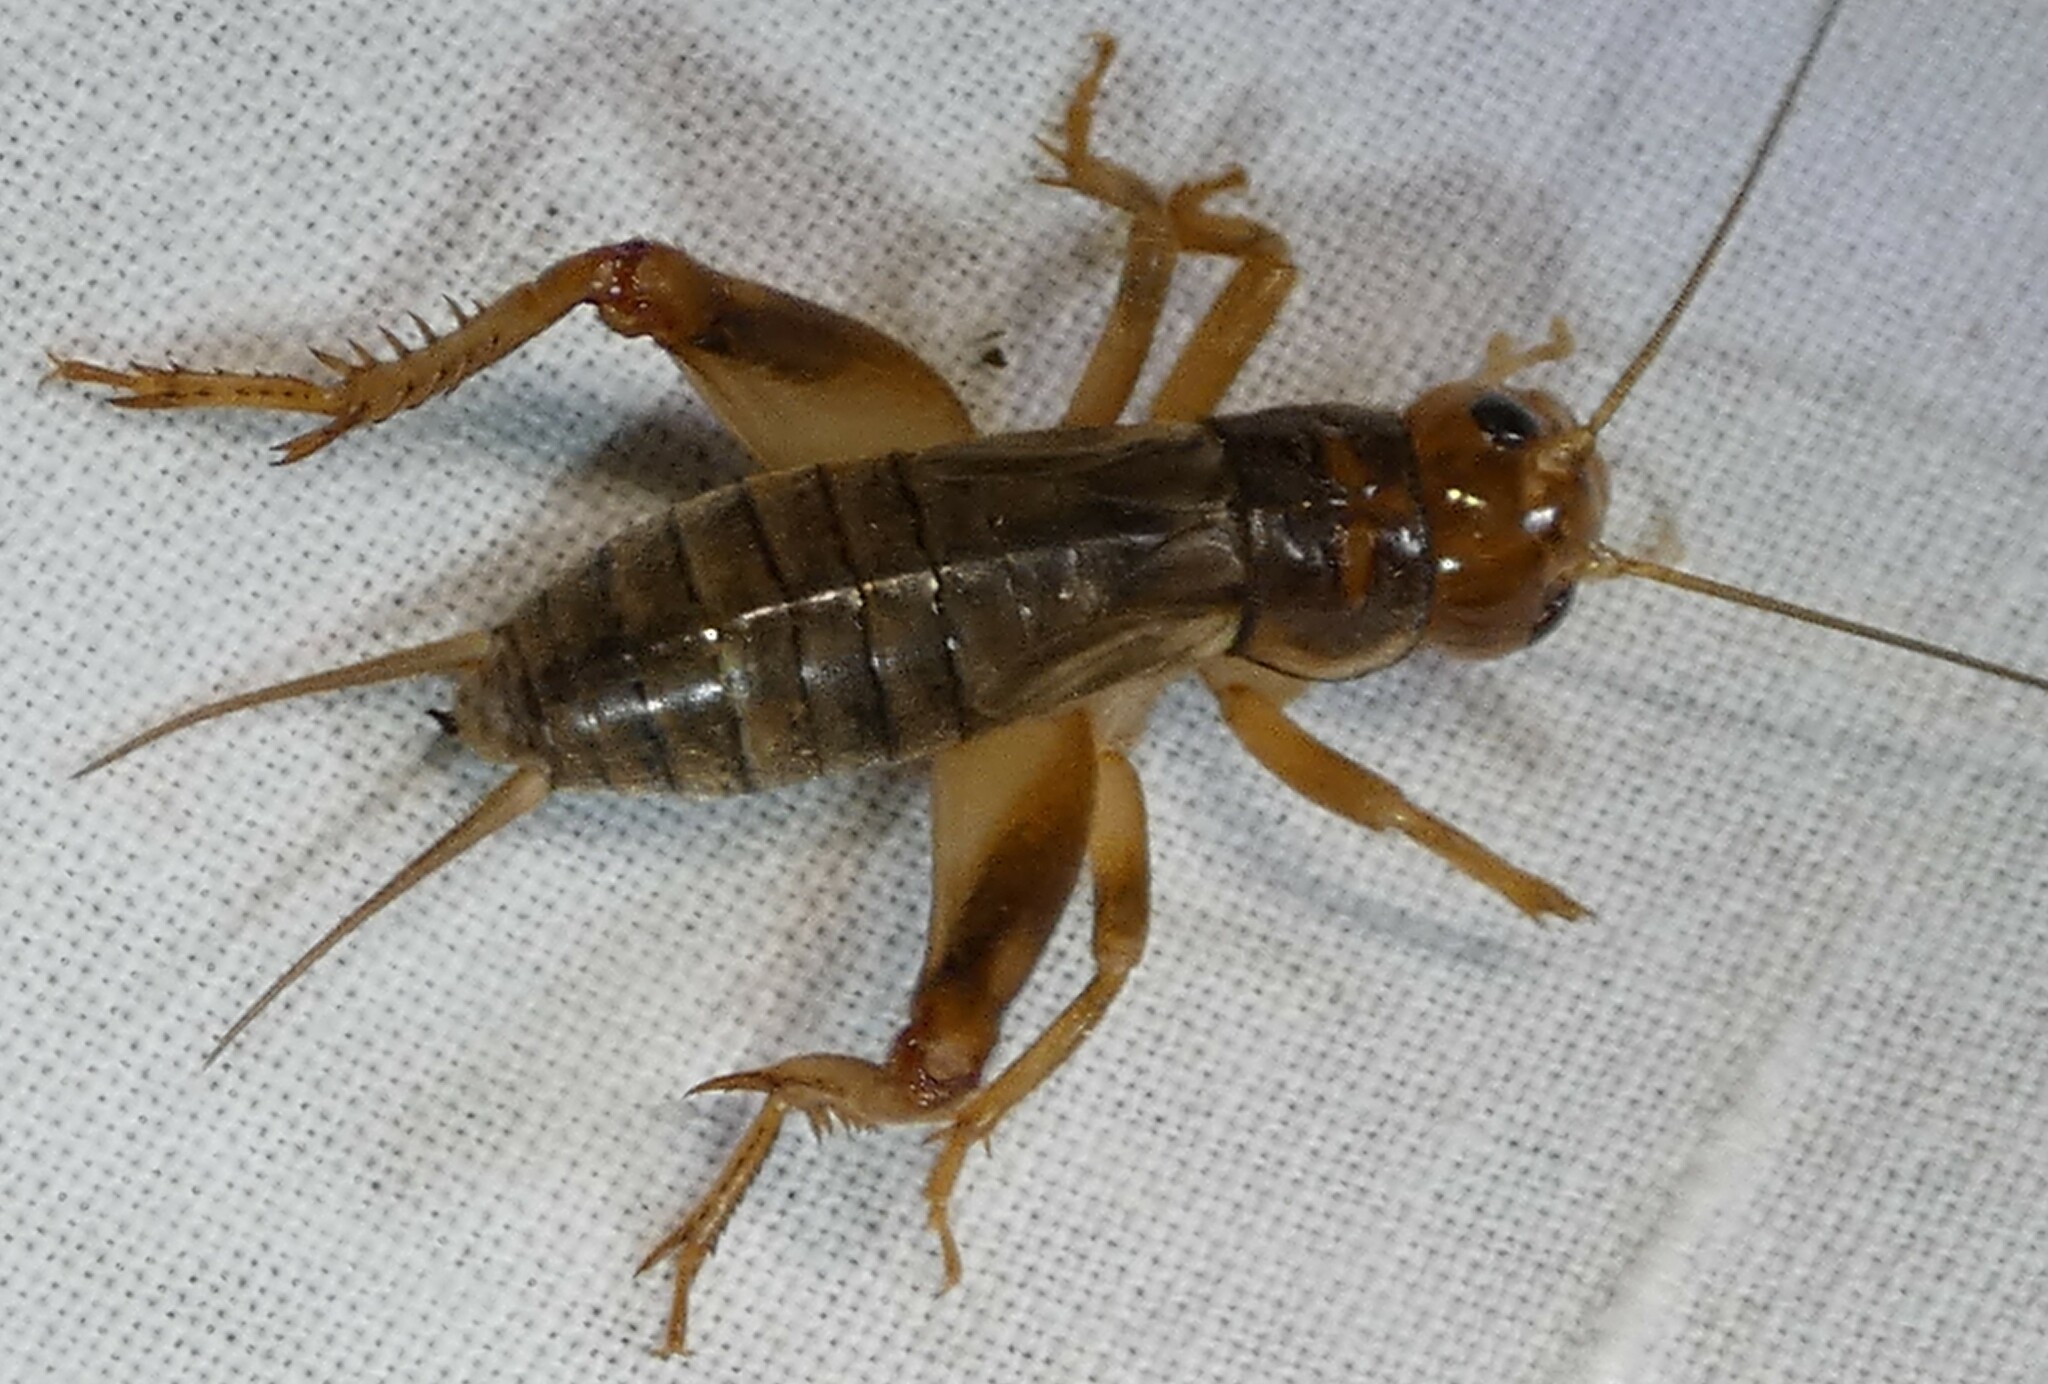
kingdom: Animalia
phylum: Arthropoda
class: Insecta
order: Orthoptera
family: Gryllidae
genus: Anurogryllus
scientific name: Anurogryllus arboreus
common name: Common short-tailed cricket
